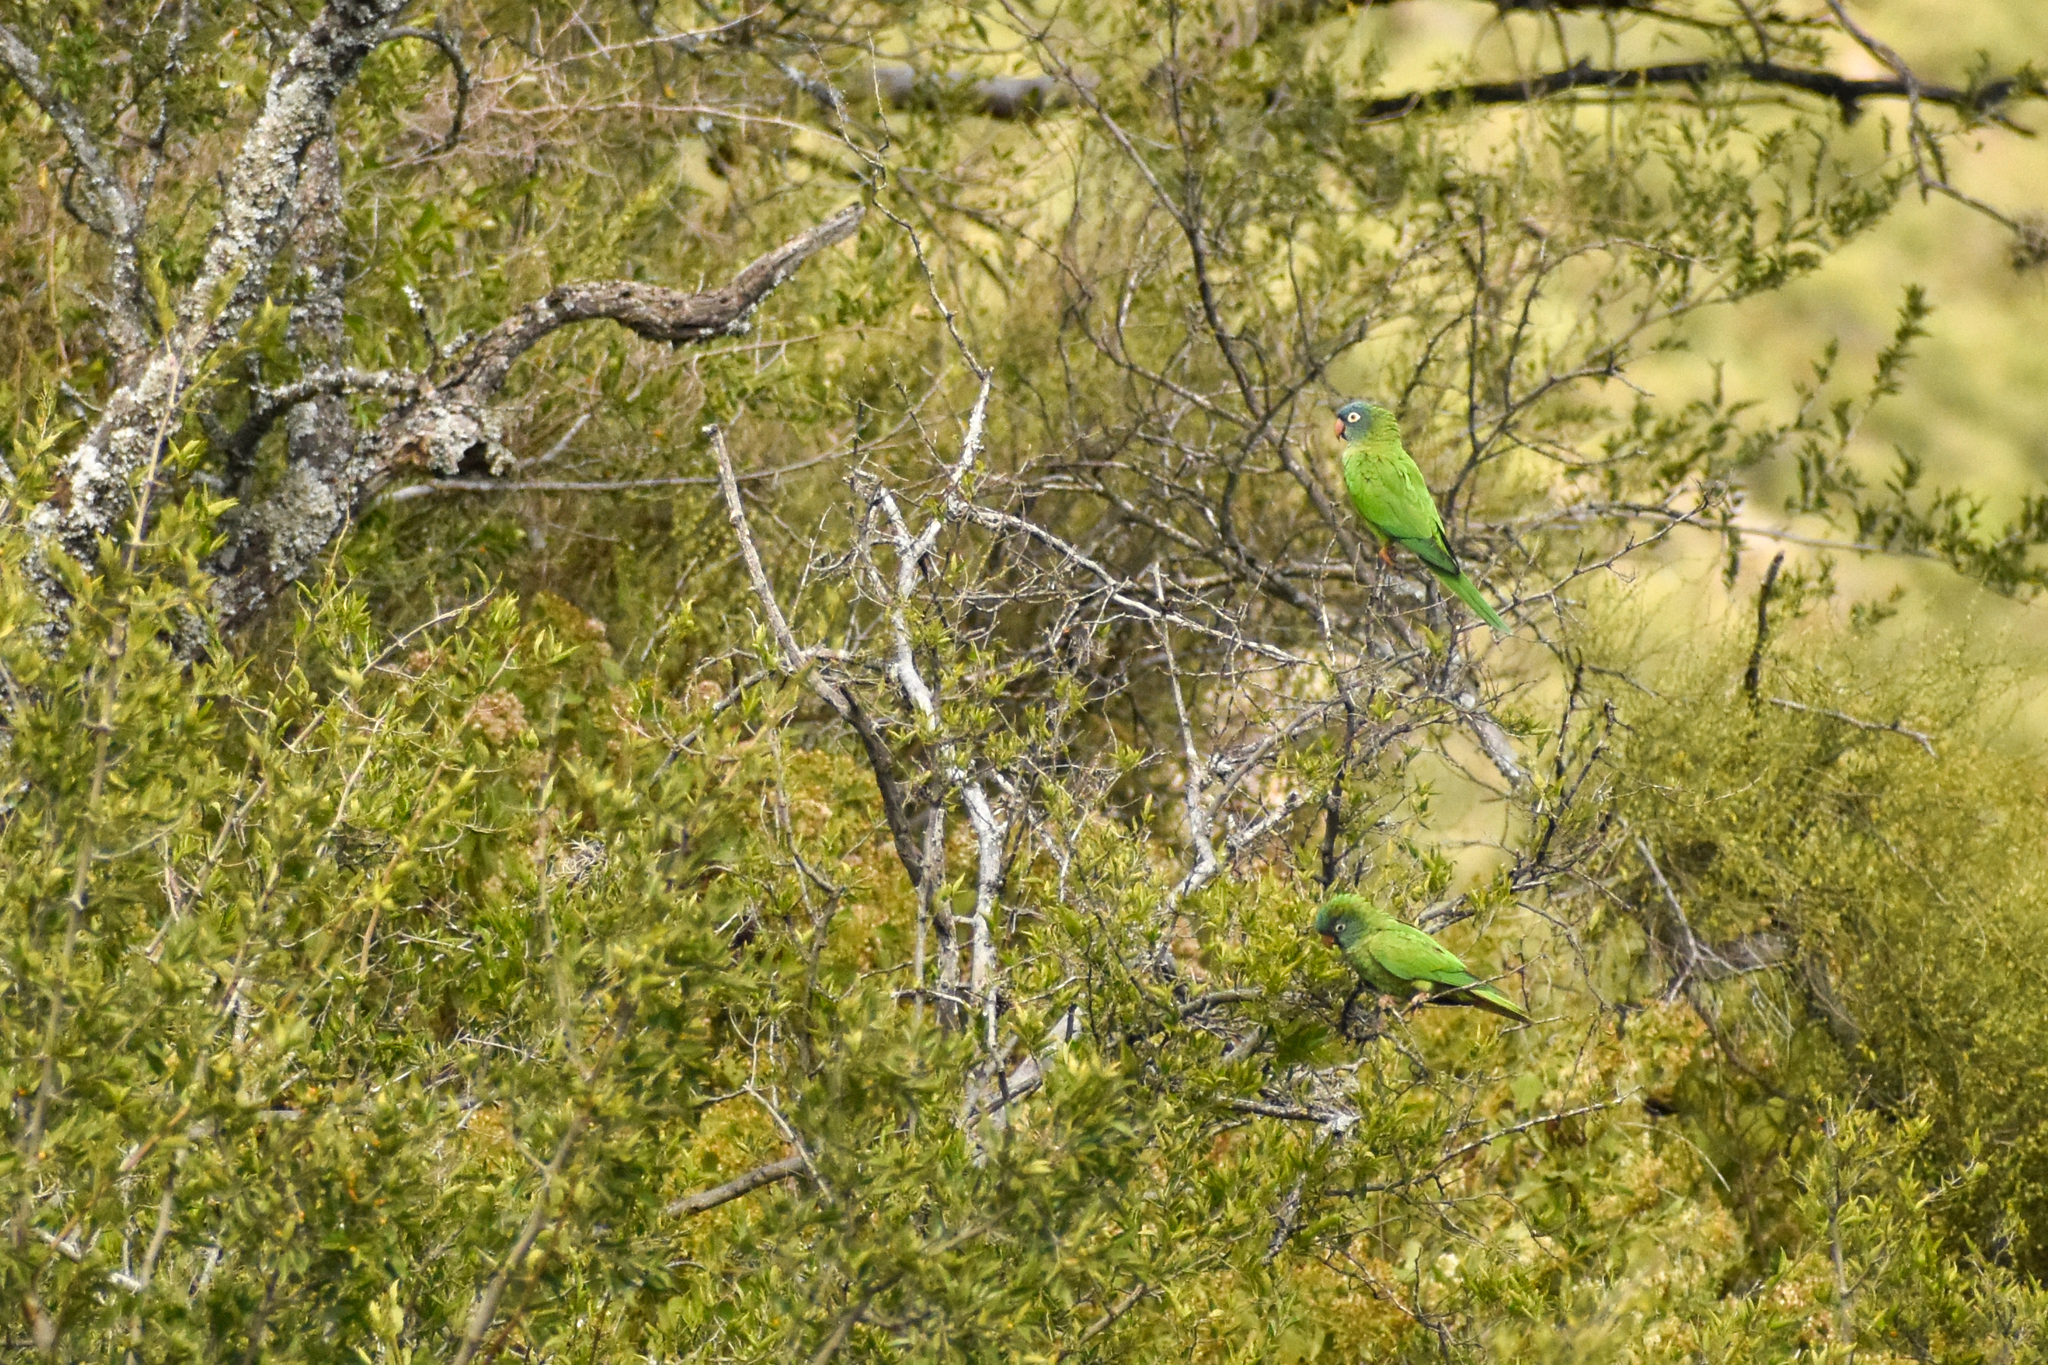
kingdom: Animalia
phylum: Chordata
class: Aves
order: Psittaciformes
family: Psittacidae
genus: Aratinga
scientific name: Aratinga acuticaudata
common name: Blue-crowned parakeet
